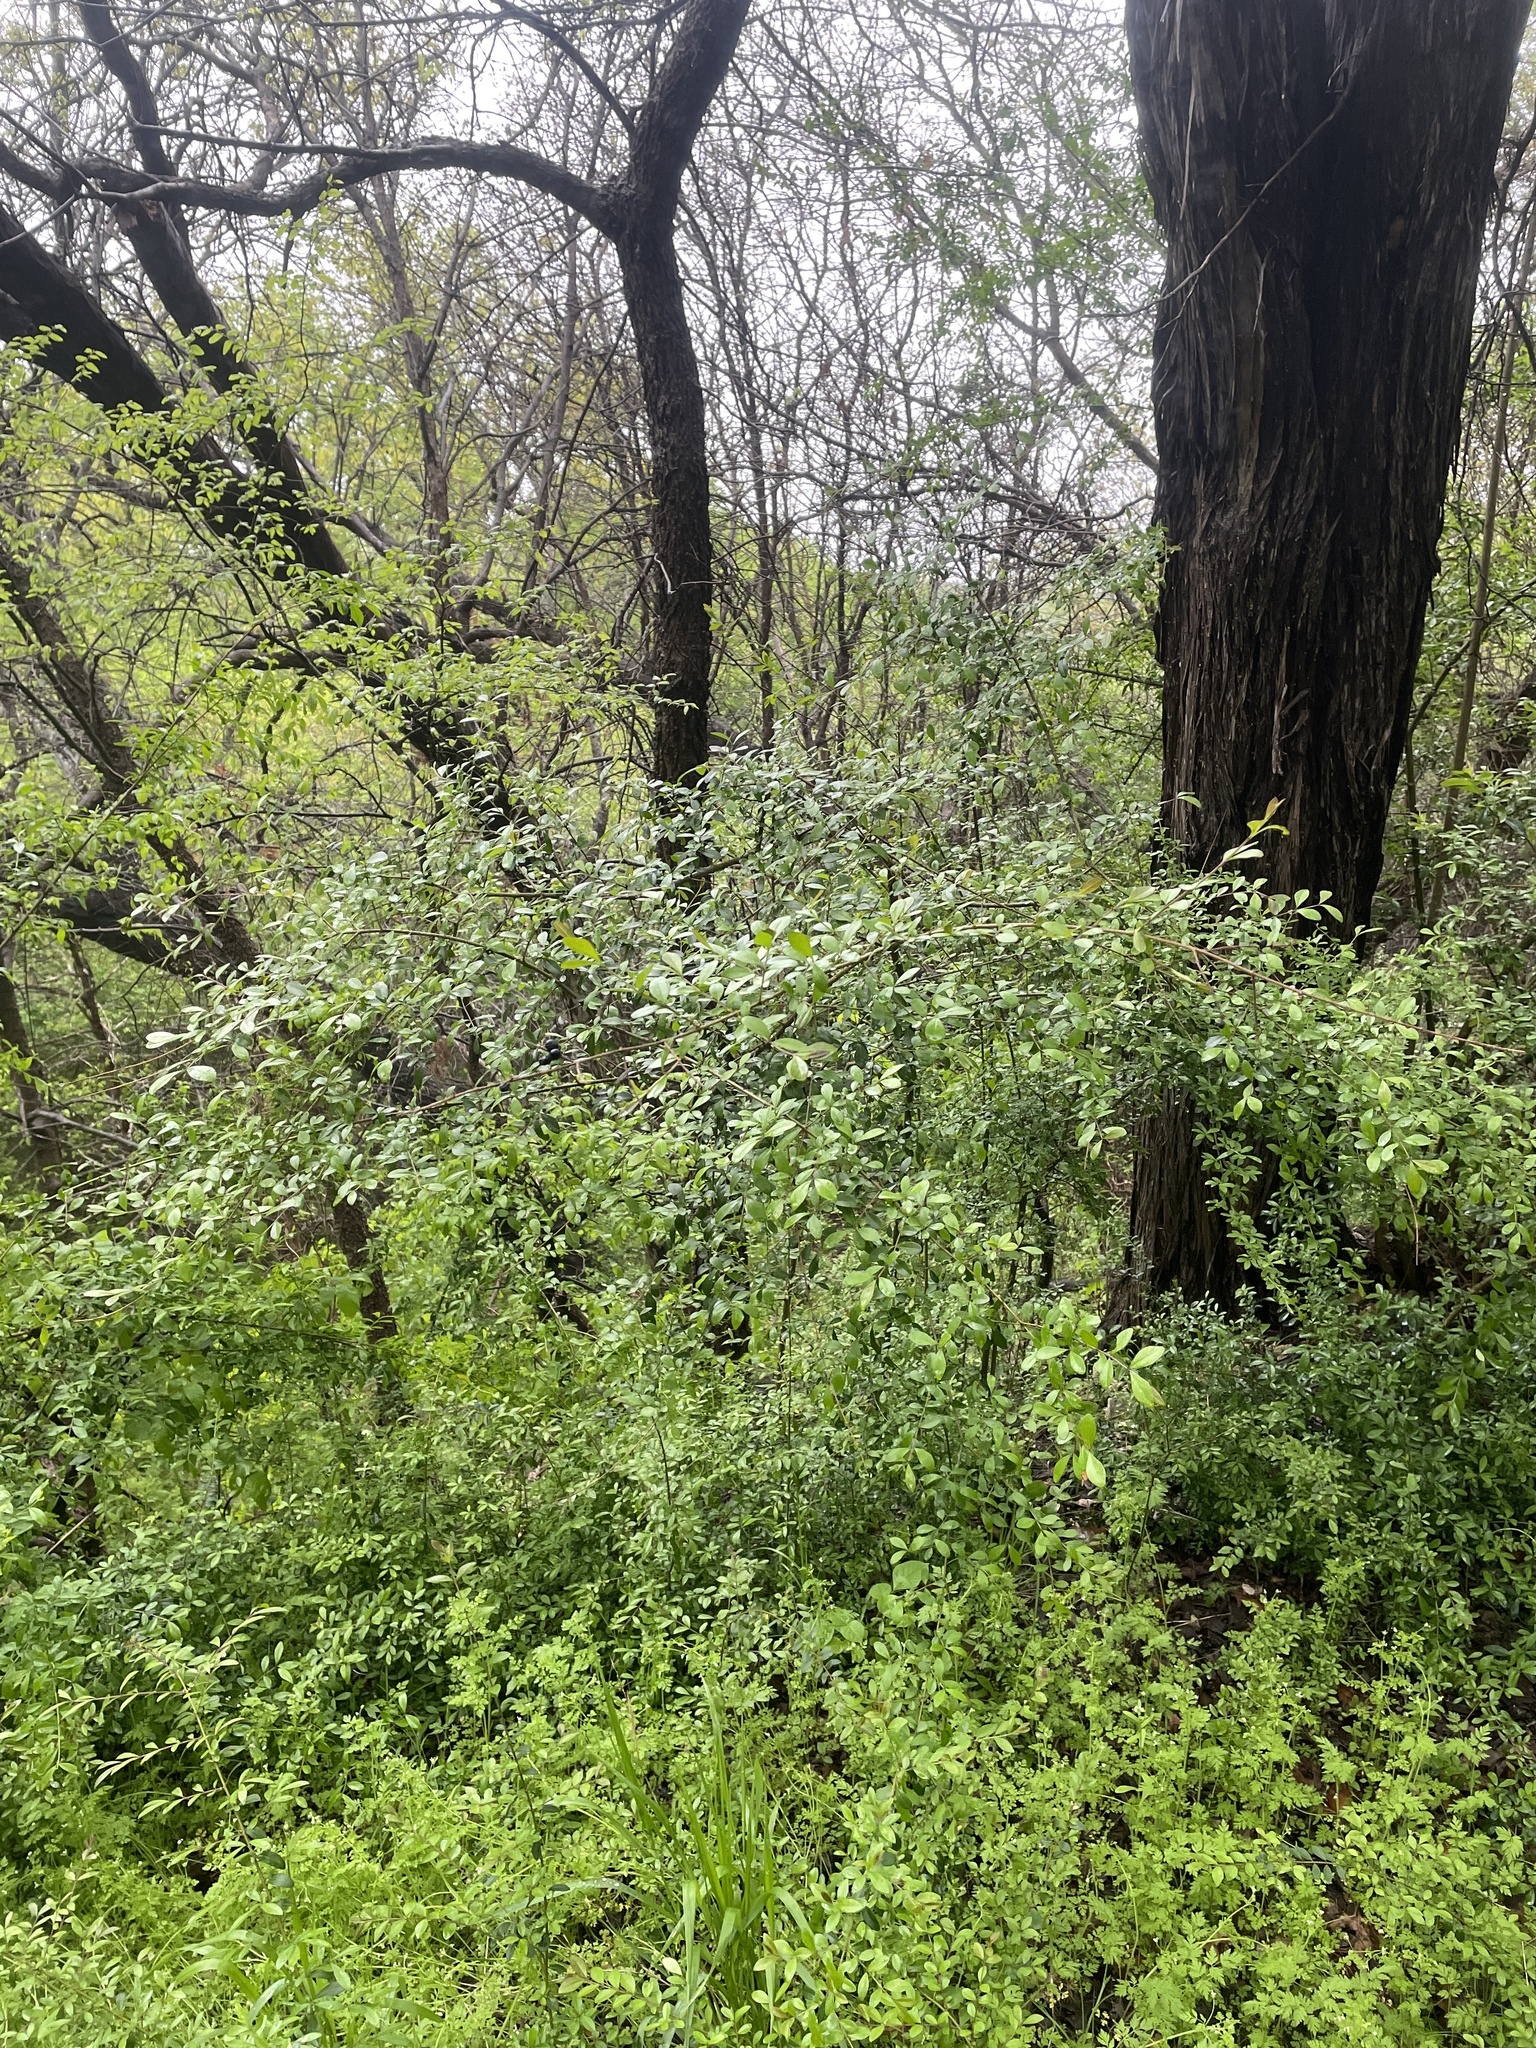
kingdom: Plantae
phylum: Tracheophyta
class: Magnoliopsida
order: Lamiales
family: Oleaceae
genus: Ligustrum
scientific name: Ligustrum quihoui
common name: Waxyleaf privet
